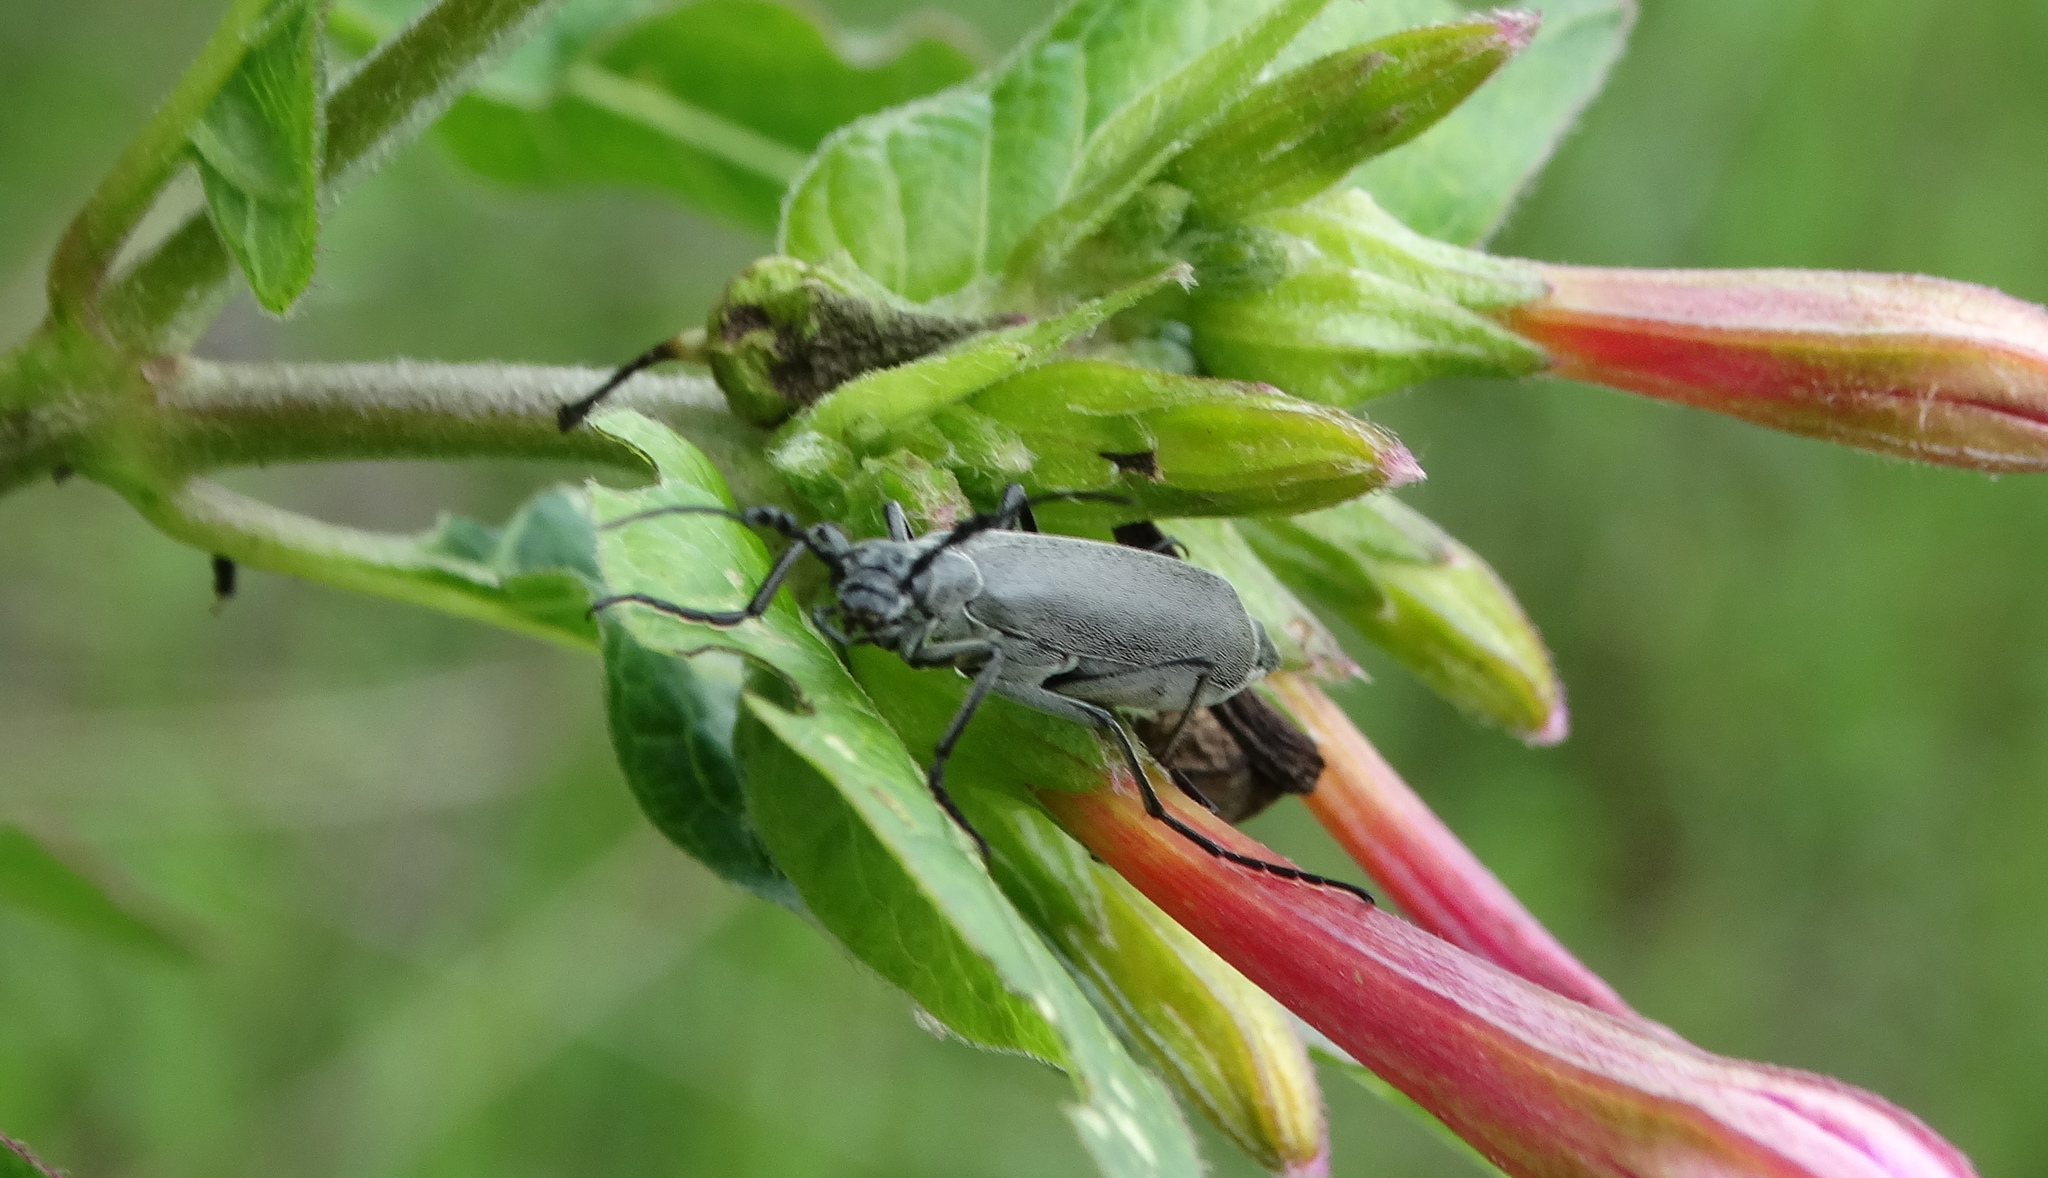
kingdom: Animalia
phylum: Arthropoda
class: Insecta
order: Coleoptera
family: Meloidae
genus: Epicauta
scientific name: Epicauta curvicornis
